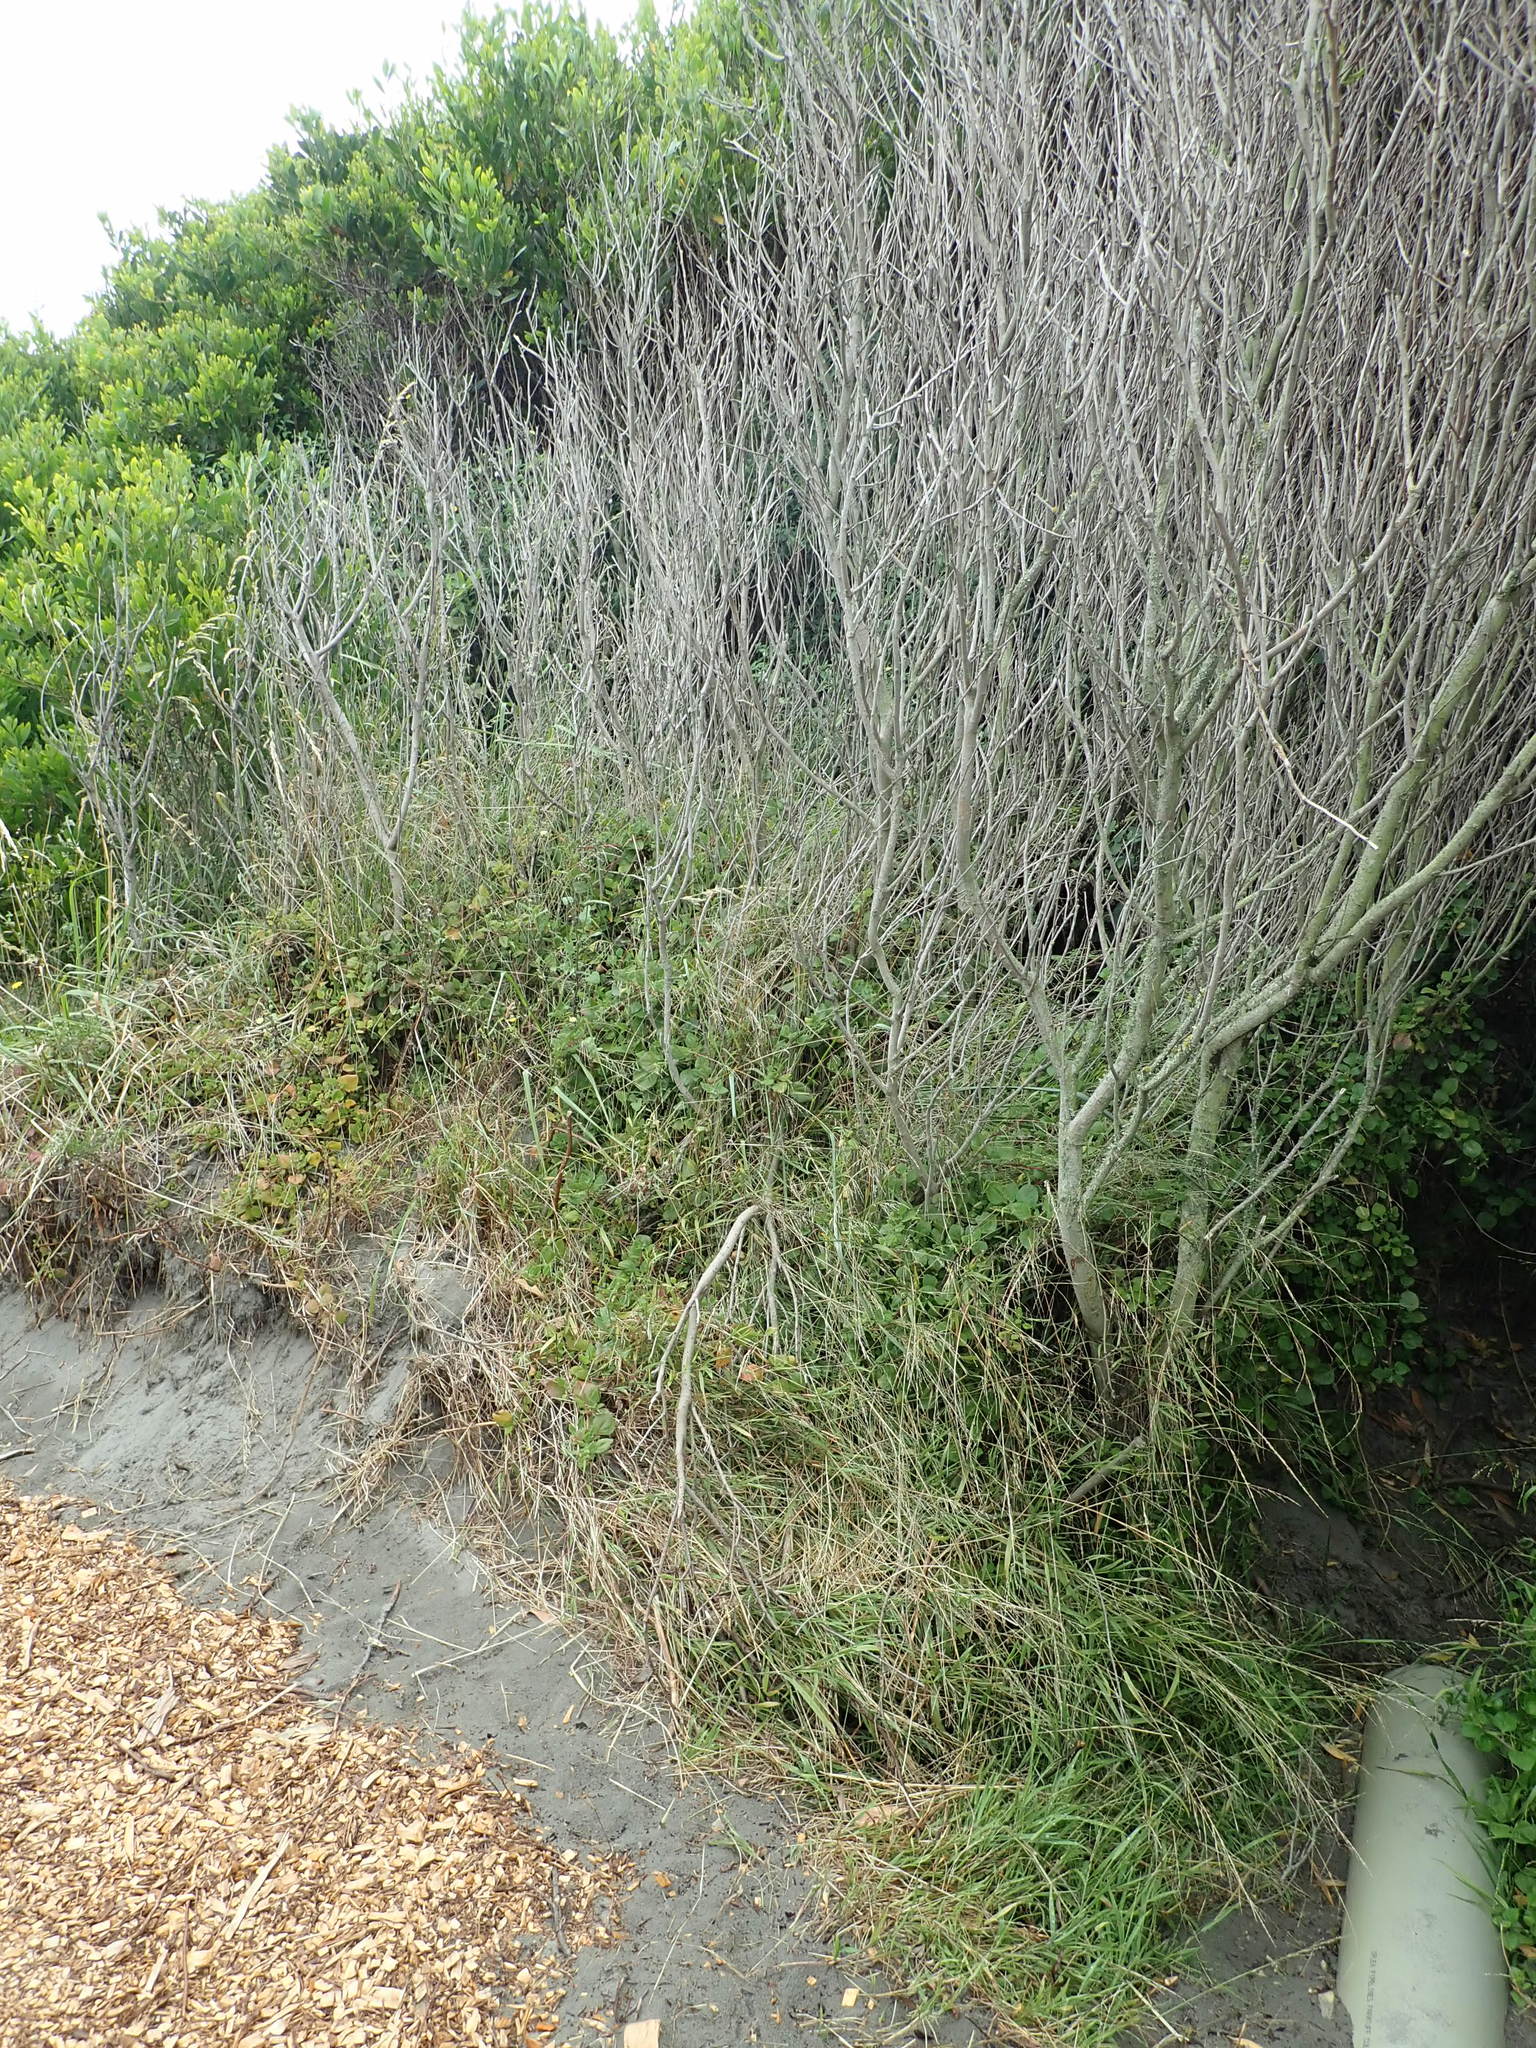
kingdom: Plantae
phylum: Tracheophyta
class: Magnoliopsida
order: Caryophyllales
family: Aizoaceae
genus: Tetragonia
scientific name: Tetragonia implexicoma
